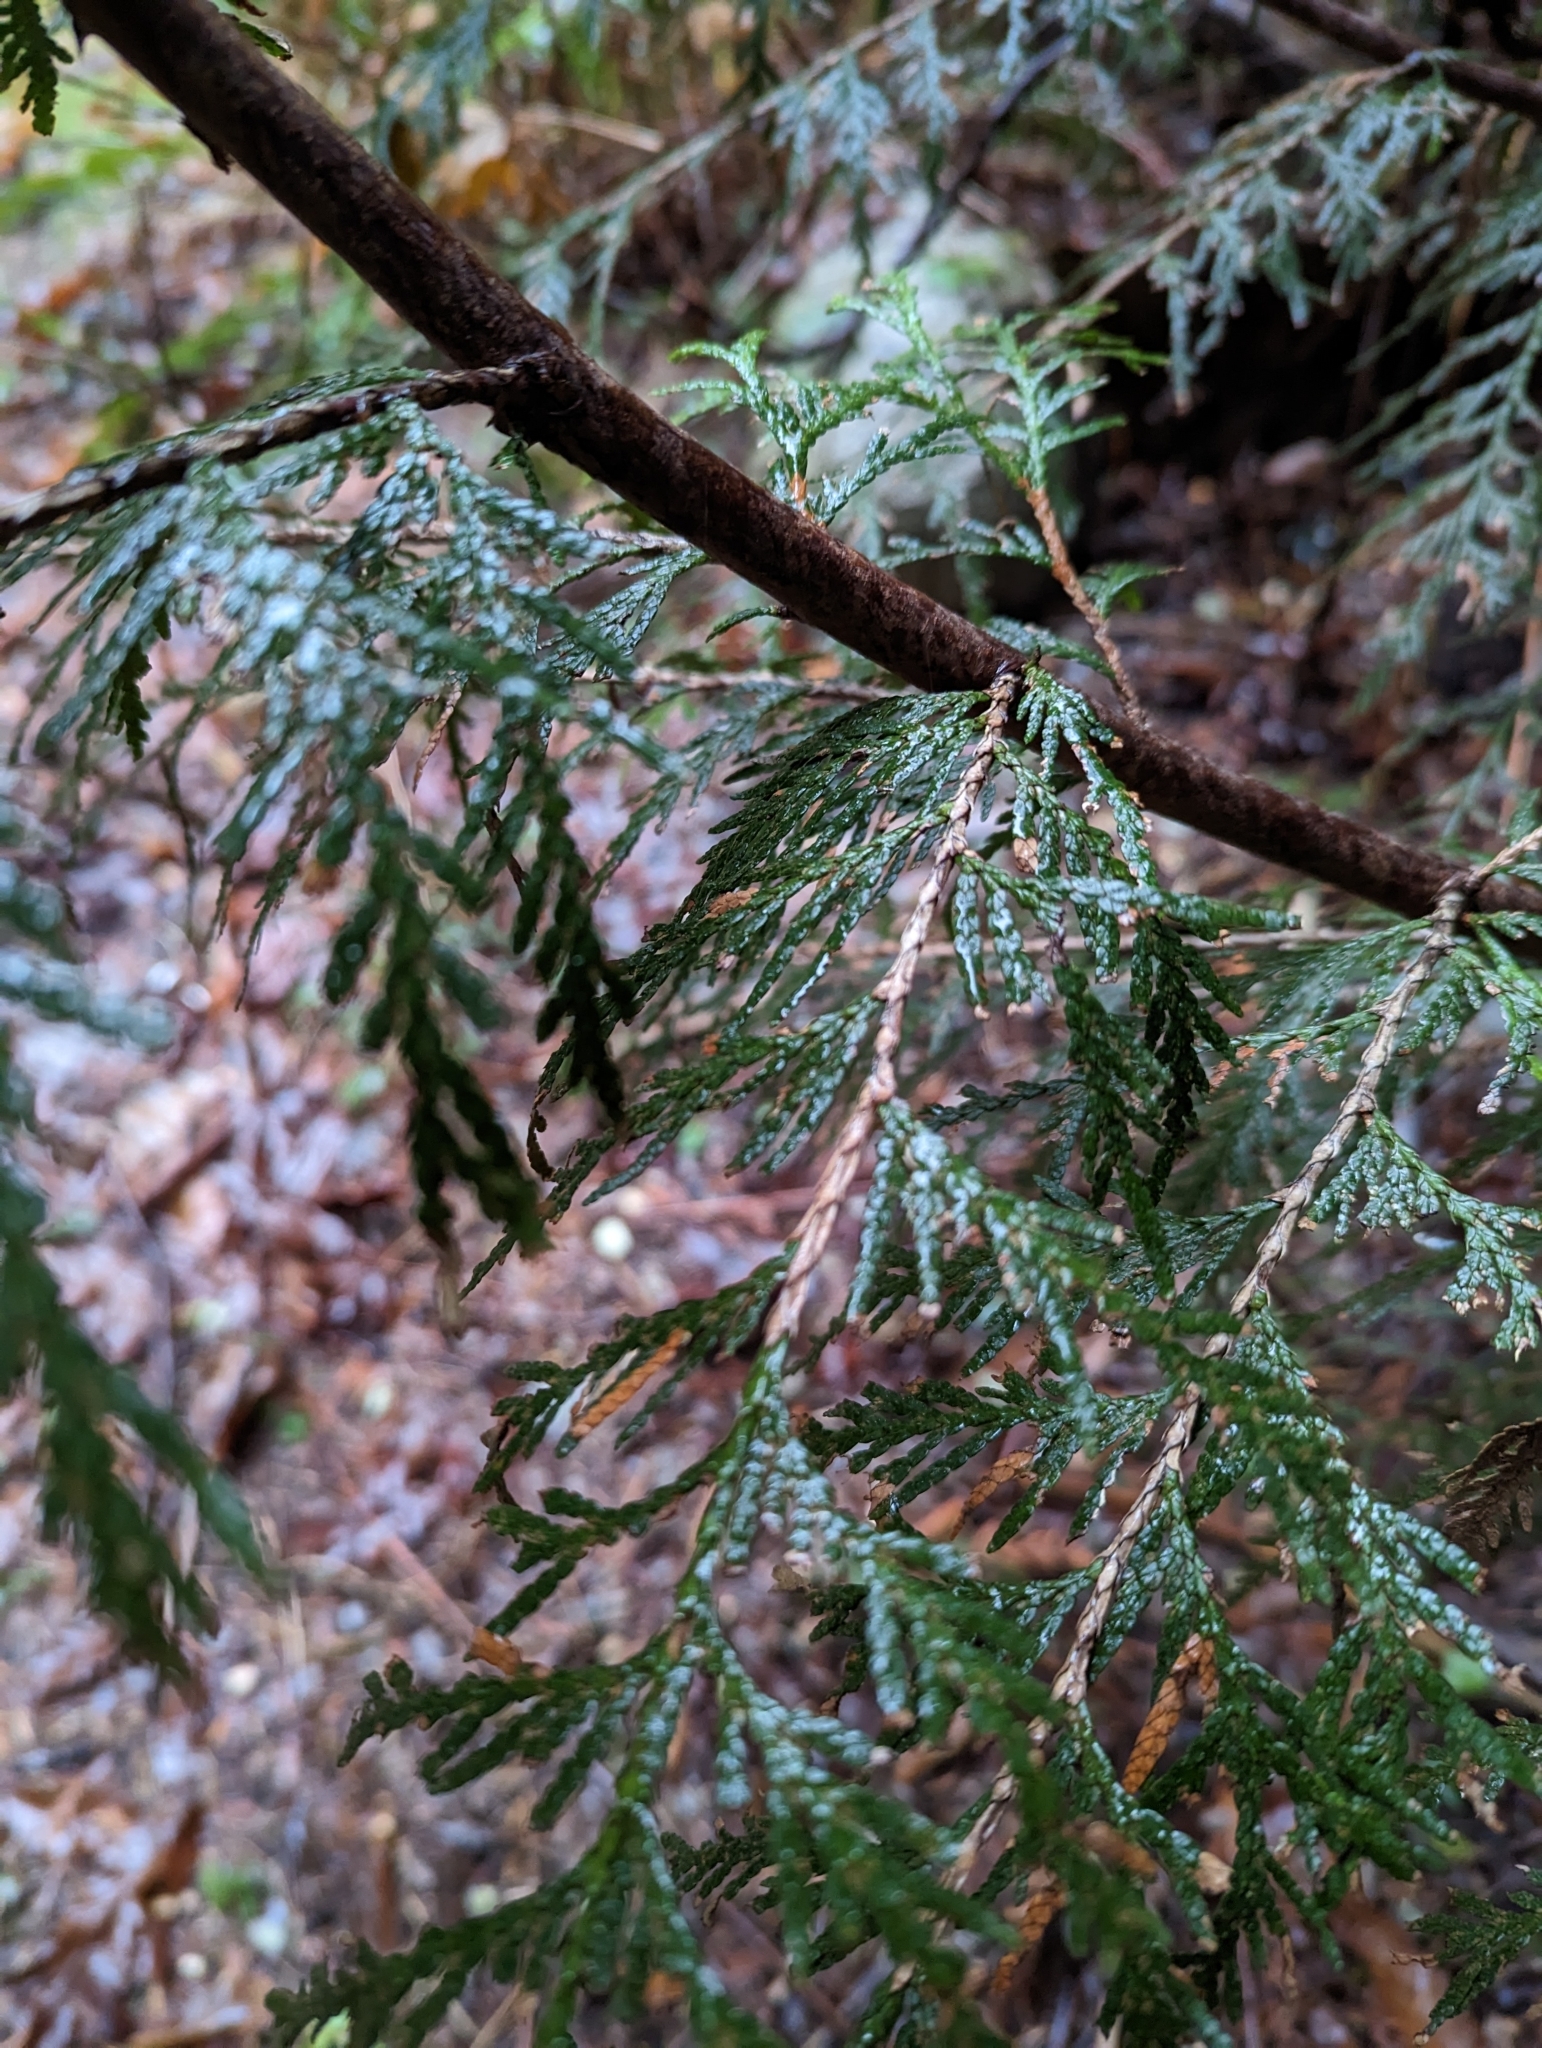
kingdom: Plantae
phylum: Tracheophyta
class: Pinopsida
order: Pinales
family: Cupressaceae
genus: Thuja
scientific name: Thuja plicata
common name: Western red-cedar
